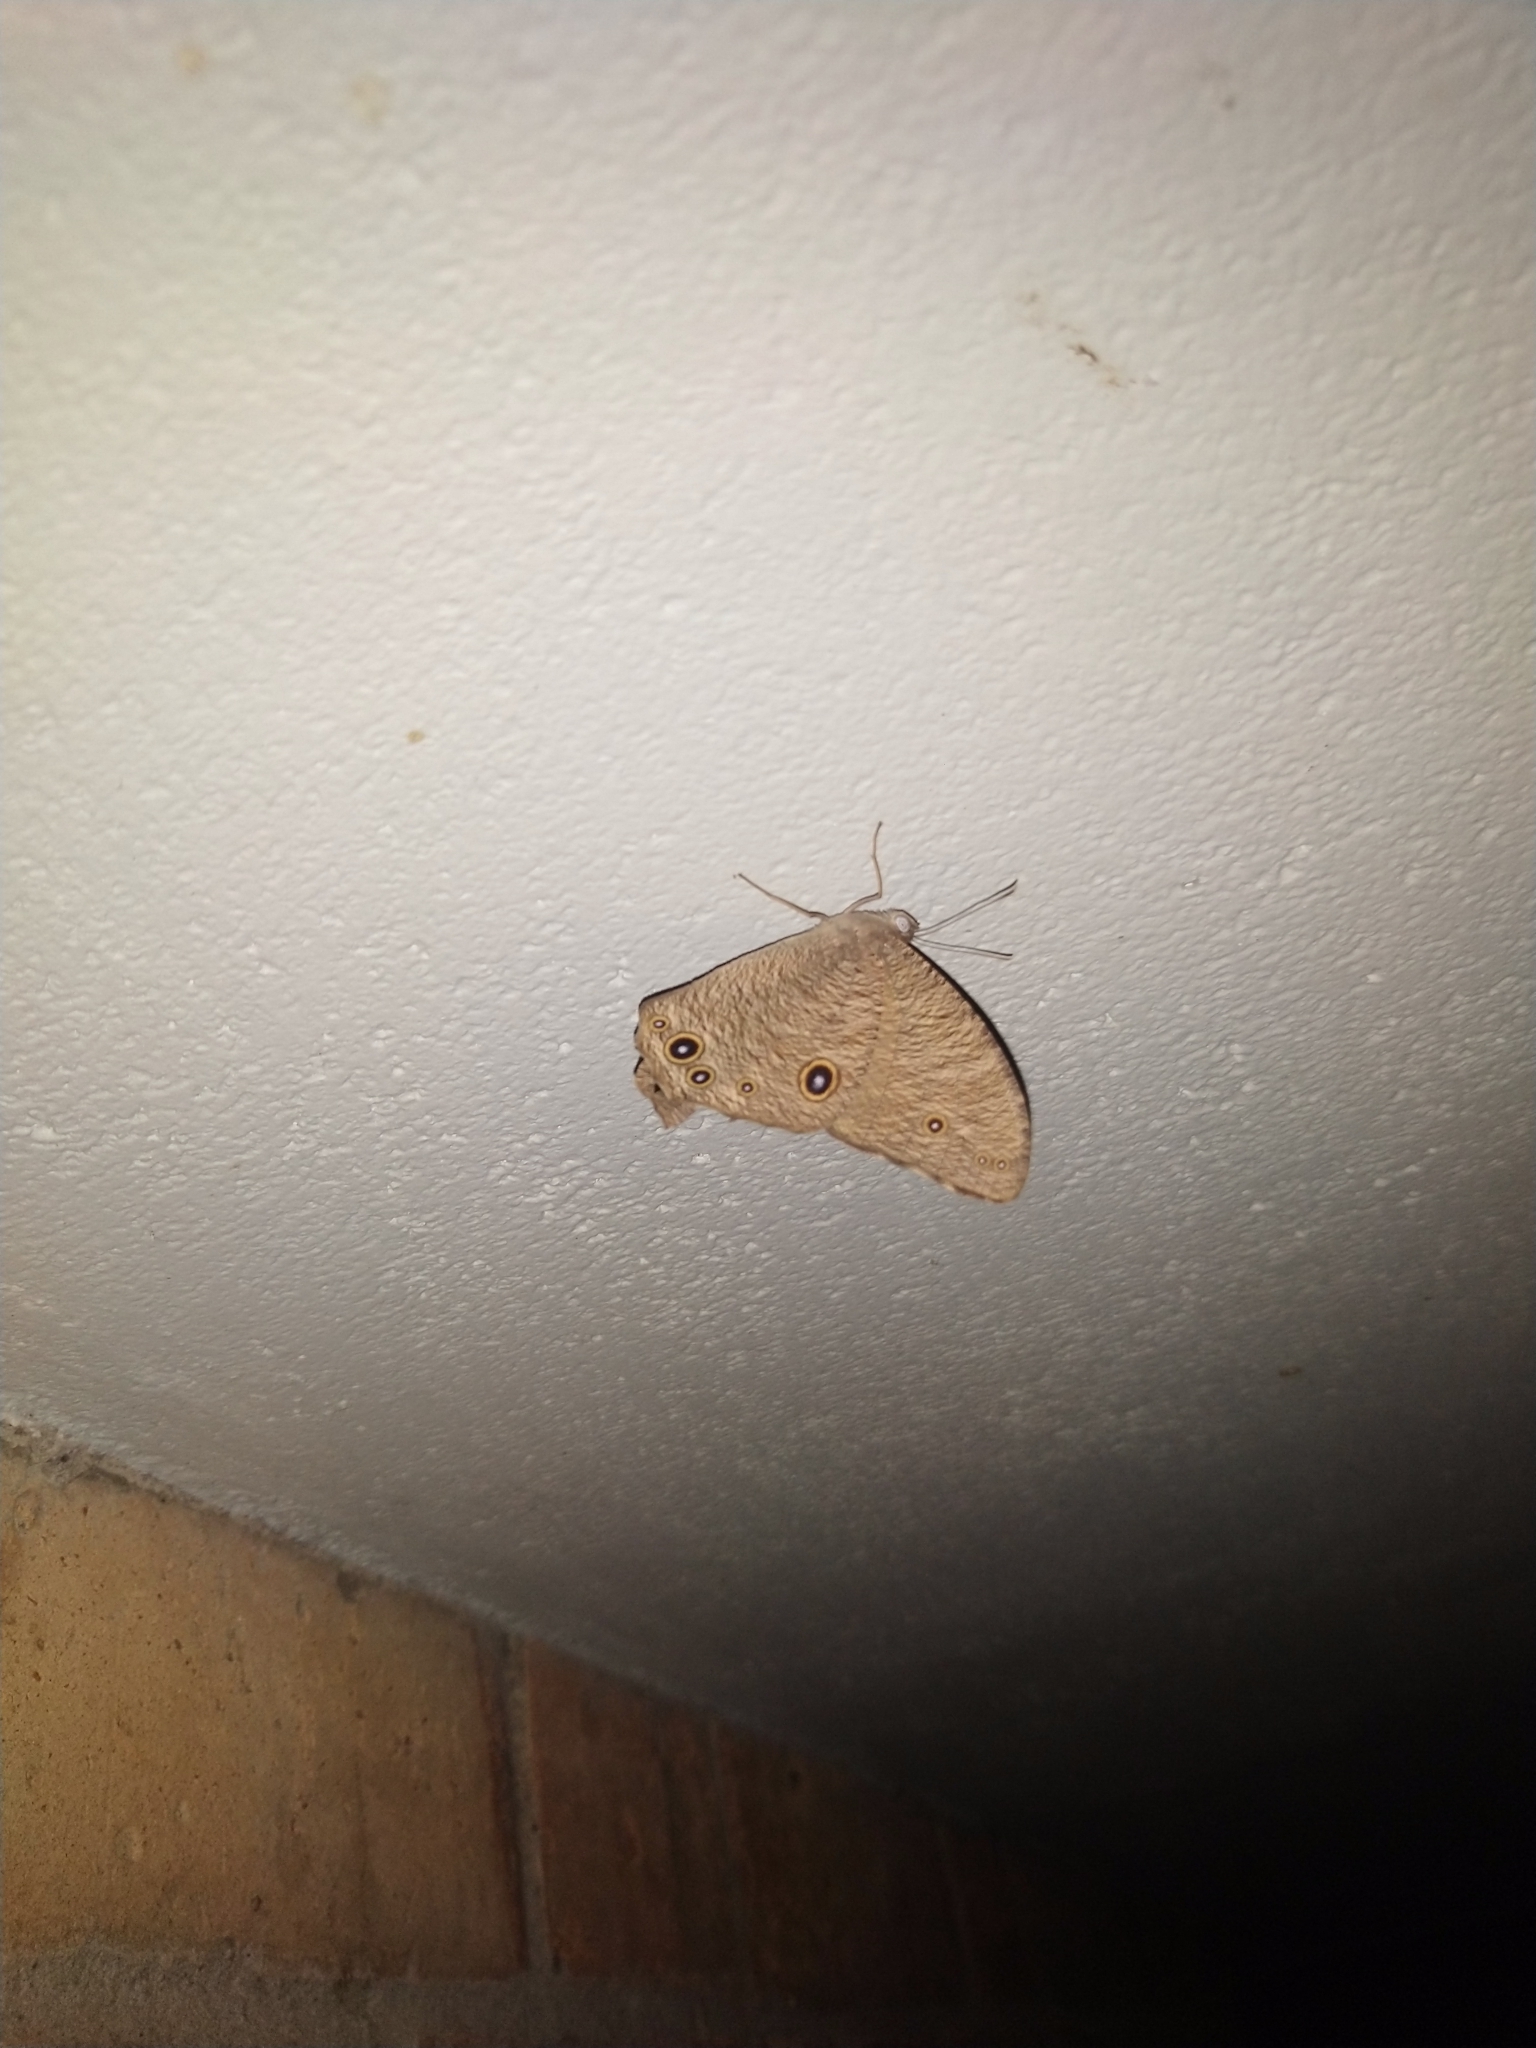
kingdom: Animalia
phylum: Arthropoda
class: Insecta
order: Lepidoptera
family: Nymphalidae
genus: Melanitis
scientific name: Melanitis leda
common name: Twilight brown
